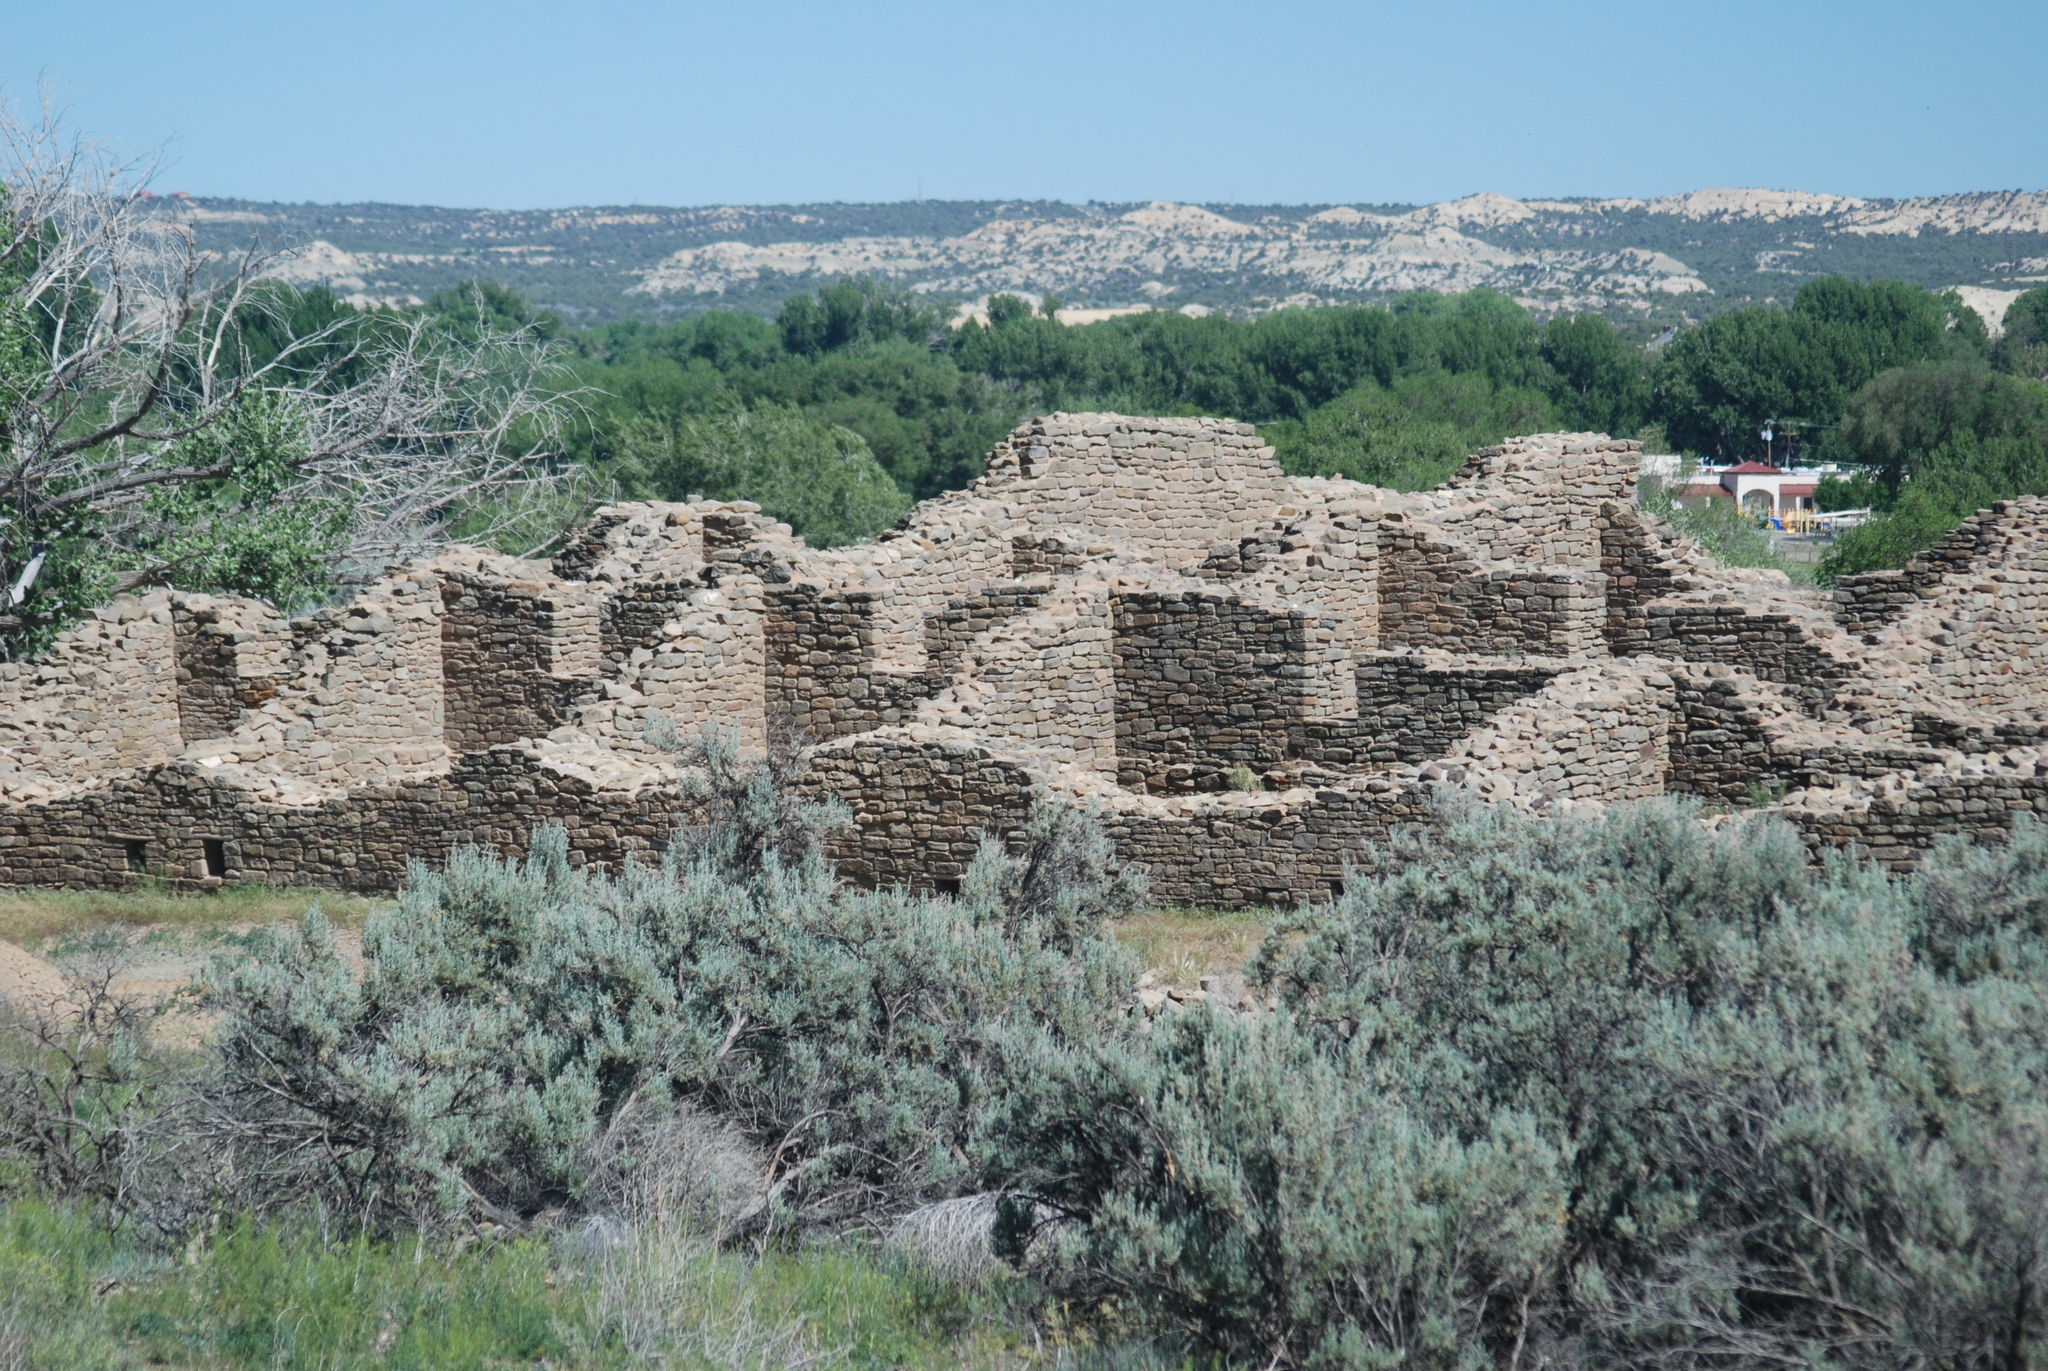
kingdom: Plantae
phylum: Tracheophyta
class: Magnoliopsida
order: Asterales
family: Asteraceae
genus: Artemisia
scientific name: Artemisia tridentata
